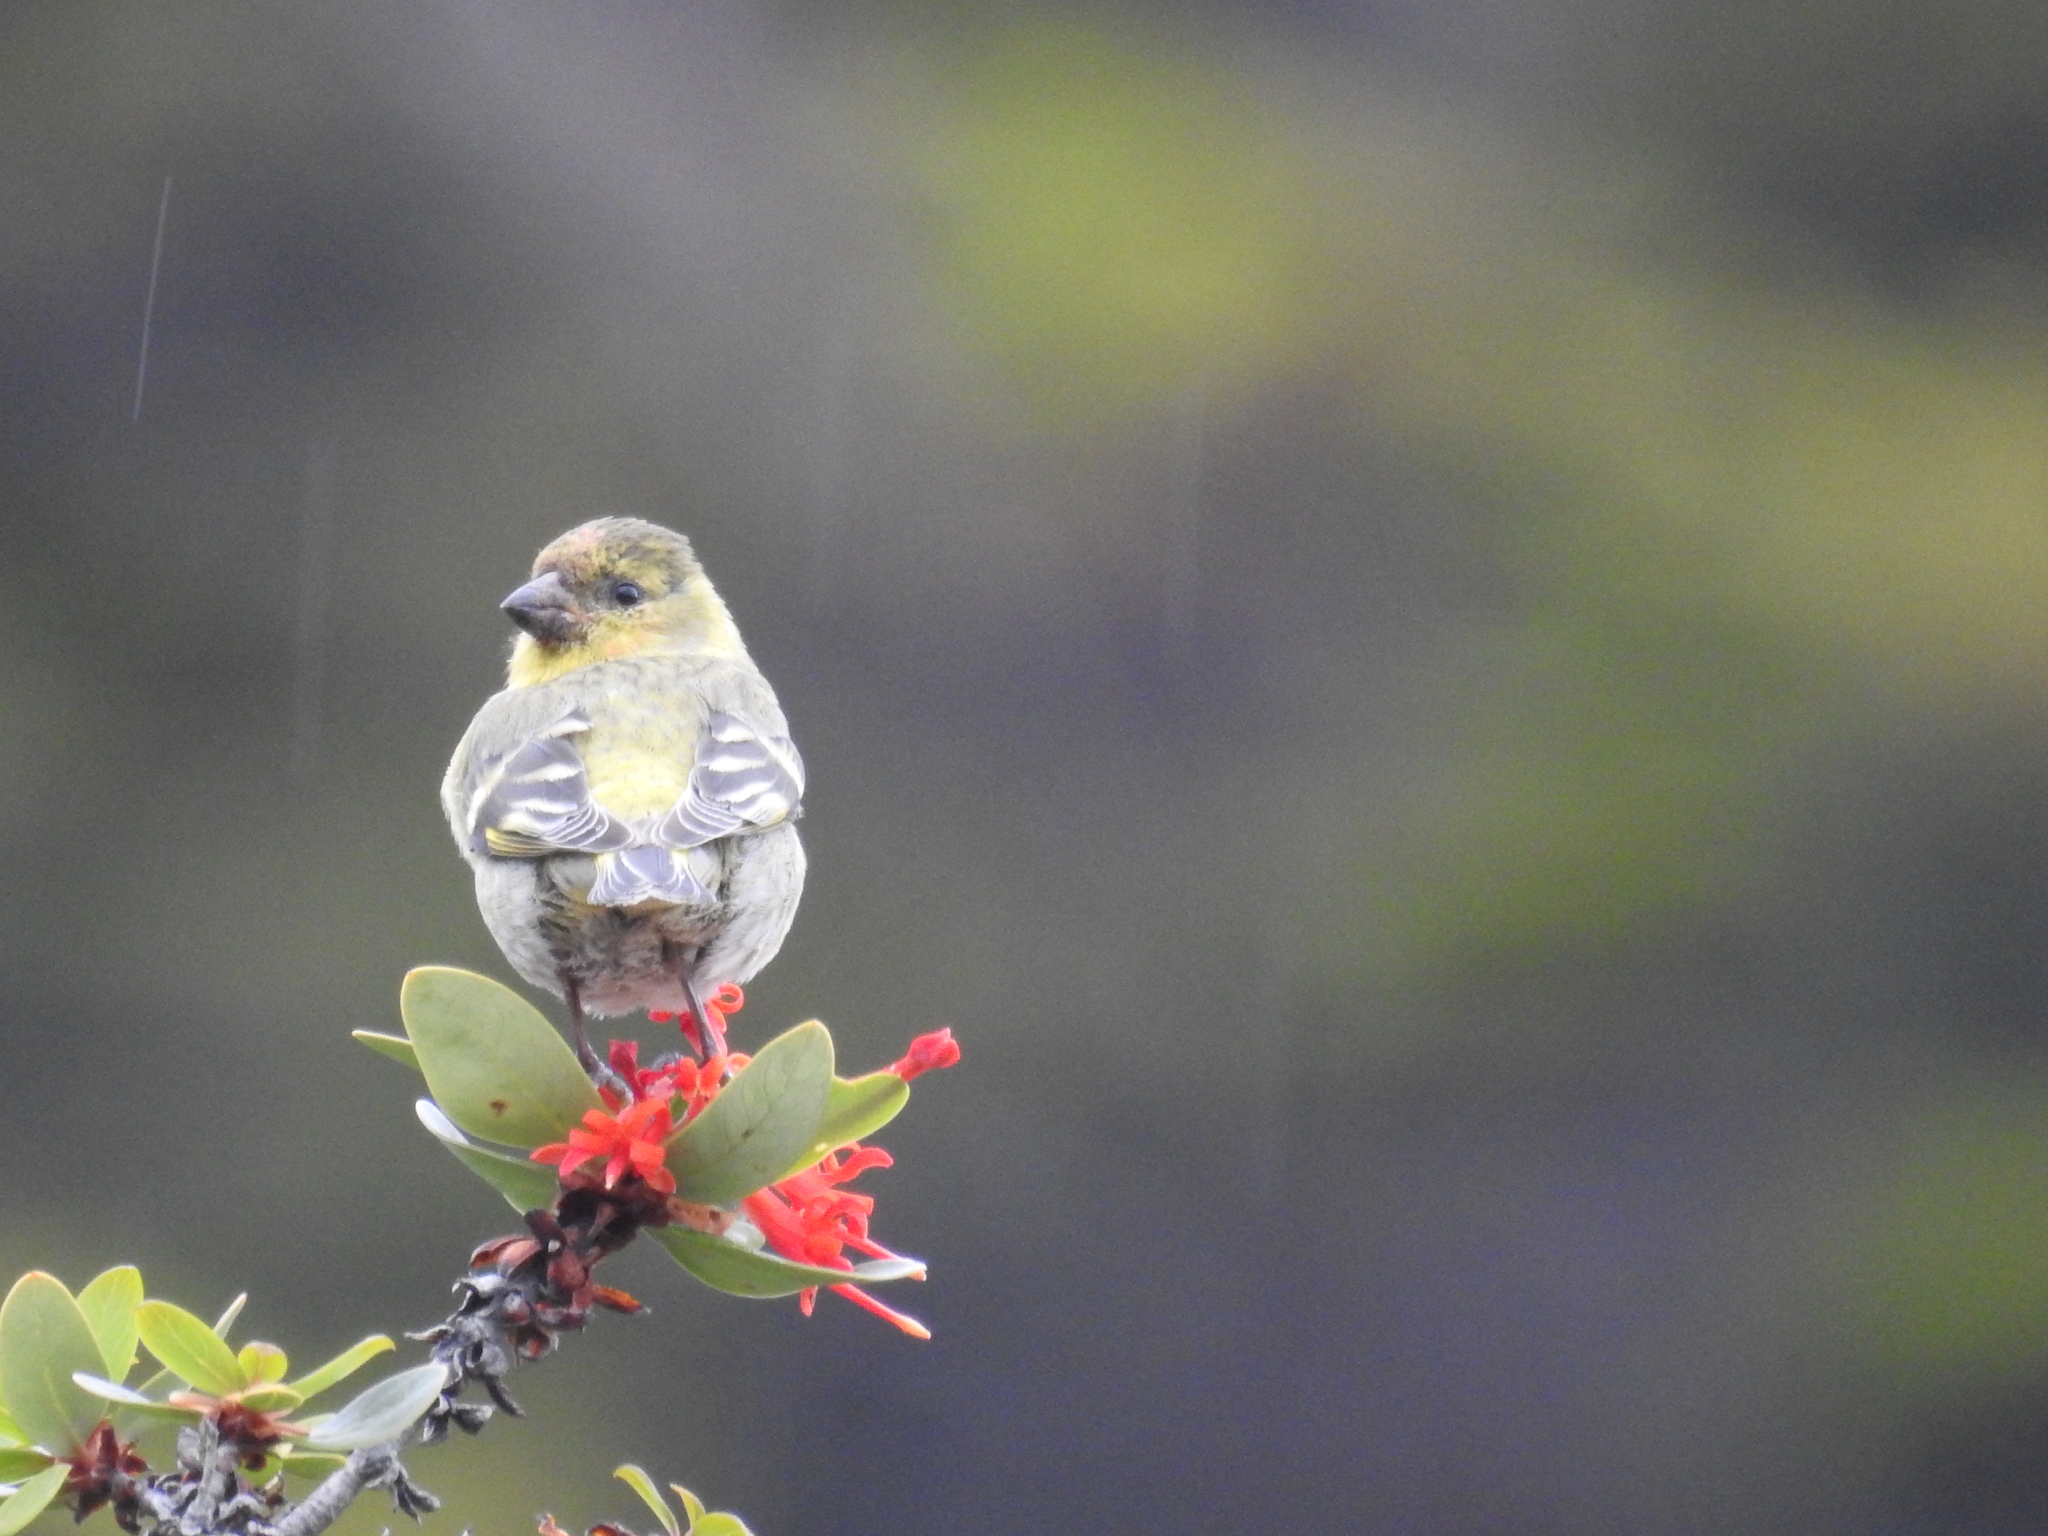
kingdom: Animalia
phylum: Chordata
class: Aves
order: Passeriformes
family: Fringillidae
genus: Spinus
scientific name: Spinus barbatus
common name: Black-chinned siskin
